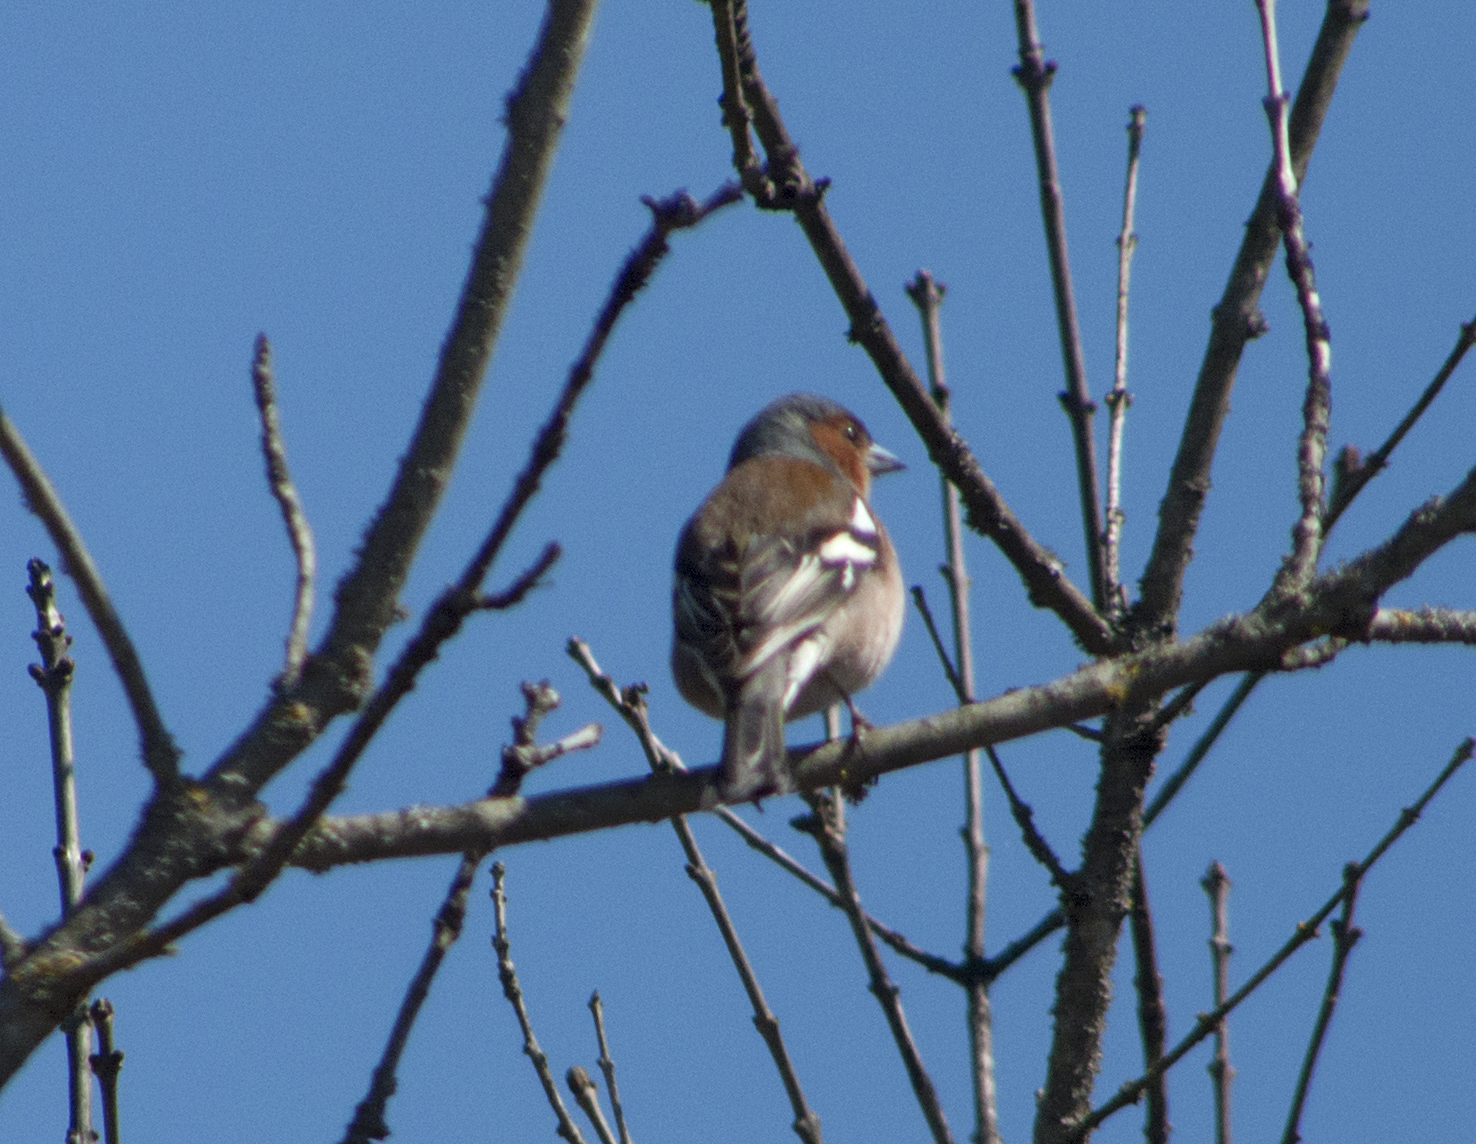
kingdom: Animalia
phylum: Chordata
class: Aves
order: Passeriformes
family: Fringillidae
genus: Fringilla
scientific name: Fringilla coelebs
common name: Common chaffinch
